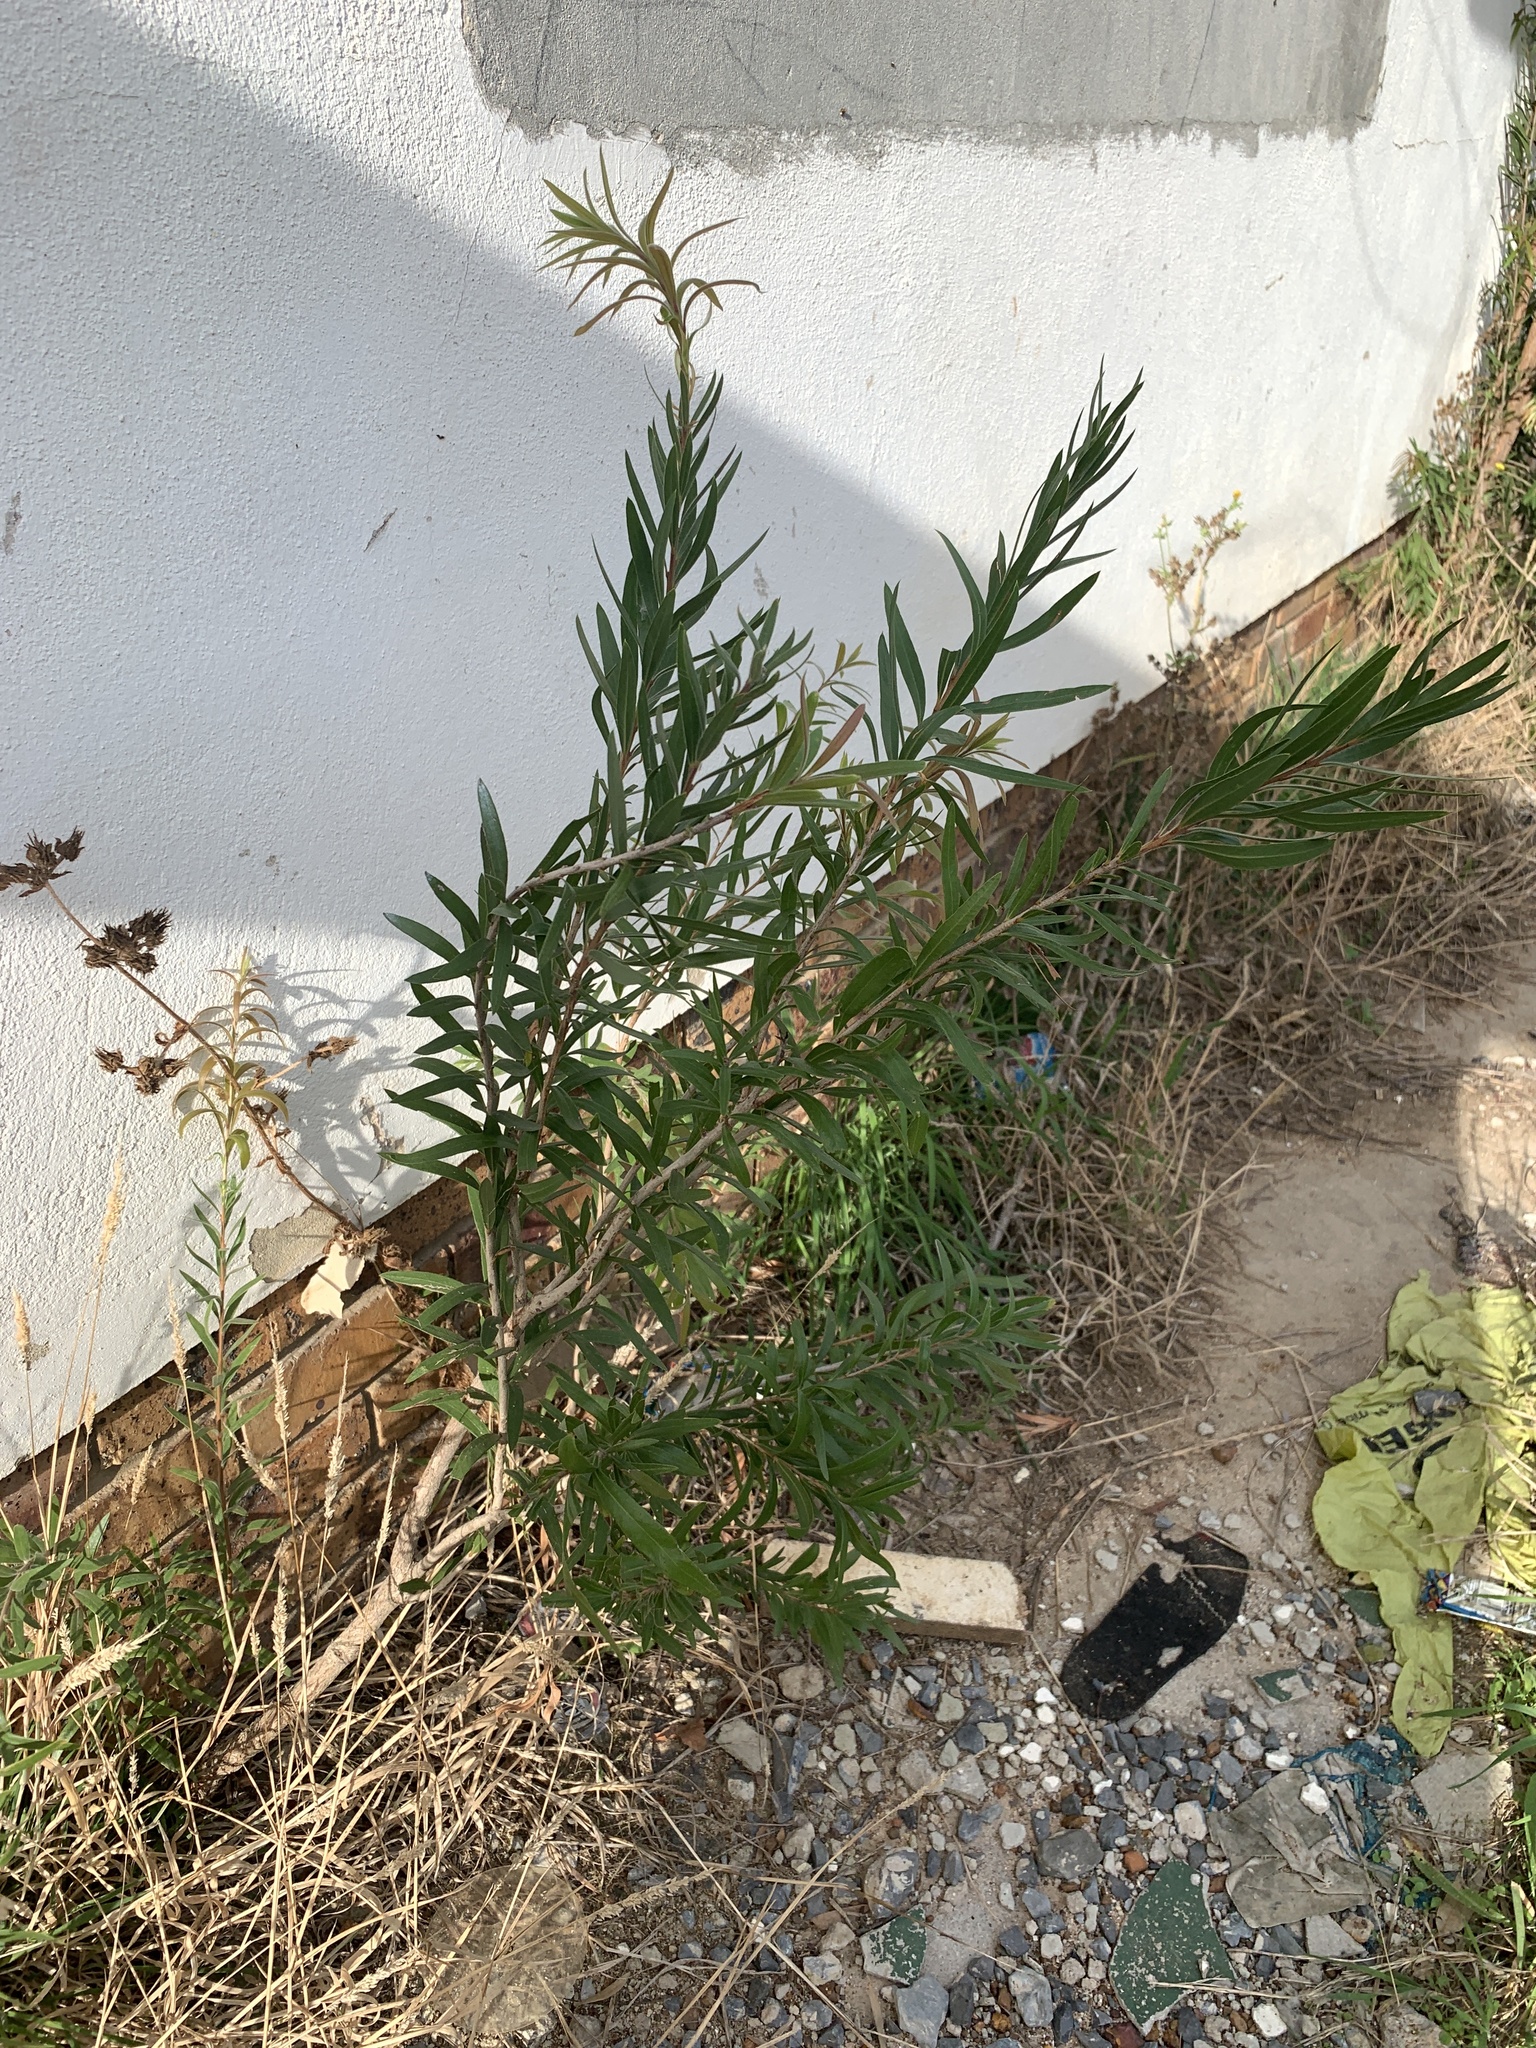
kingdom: Plantae
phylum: Tracheophyta
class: Magnoliopsida
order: Myrtales
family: Myrtaceae
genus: Callistemon
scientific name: Callistemon viminalis
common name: Drooping bottlebrush
